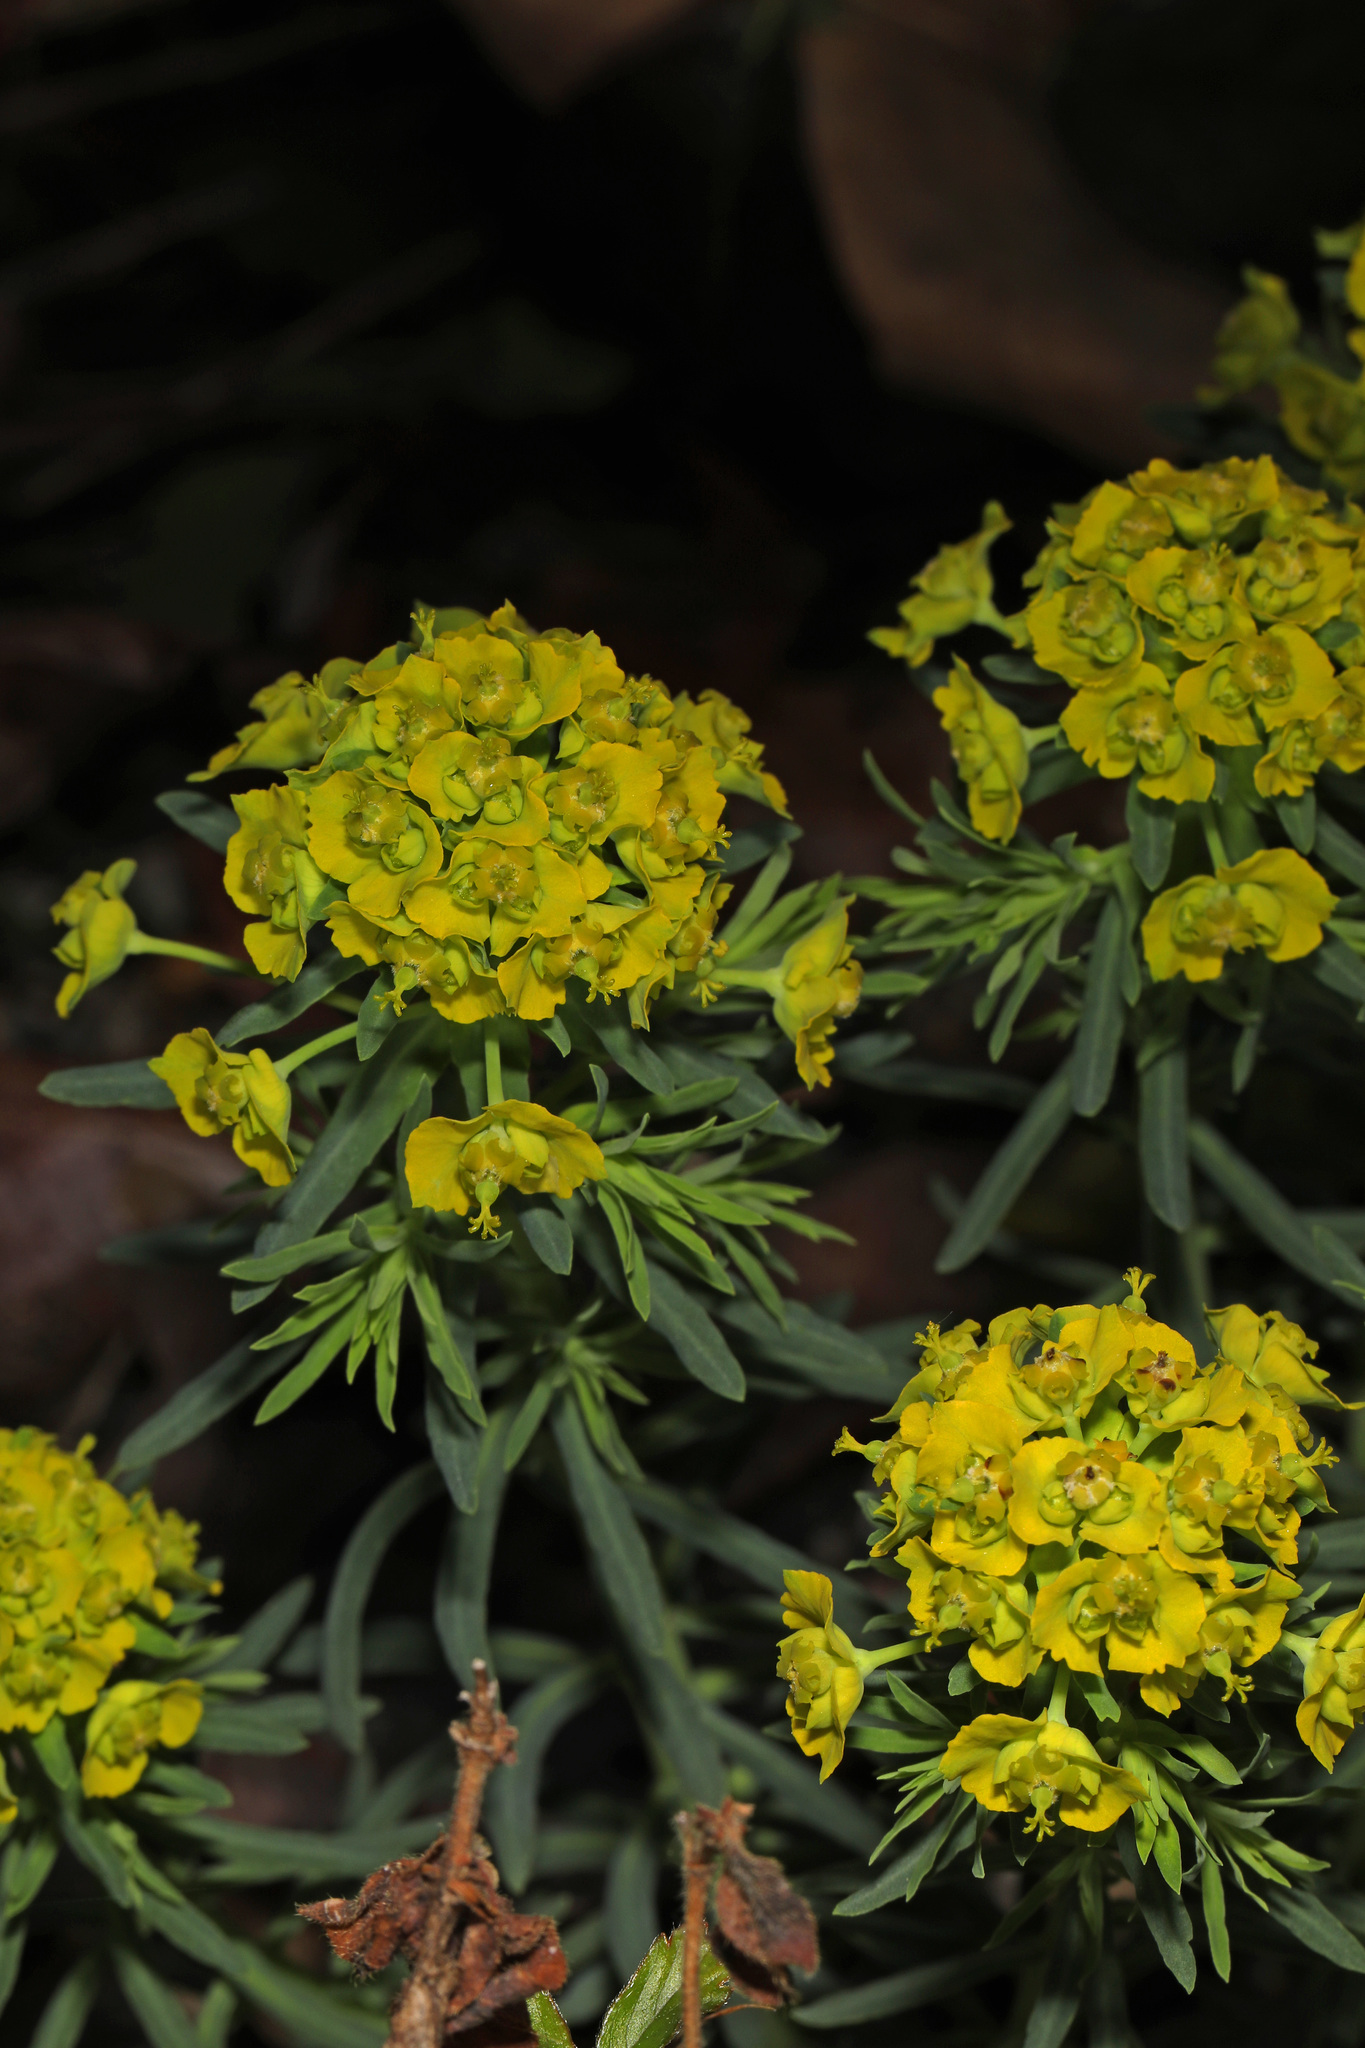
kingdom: Plantae
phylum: Tracheophyta
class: Magnoliopsida
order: Malpighiales
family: Euphorbiaceae
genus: Euphorbia
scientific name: Euphorbia cyparissias
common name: Cypress spurge
